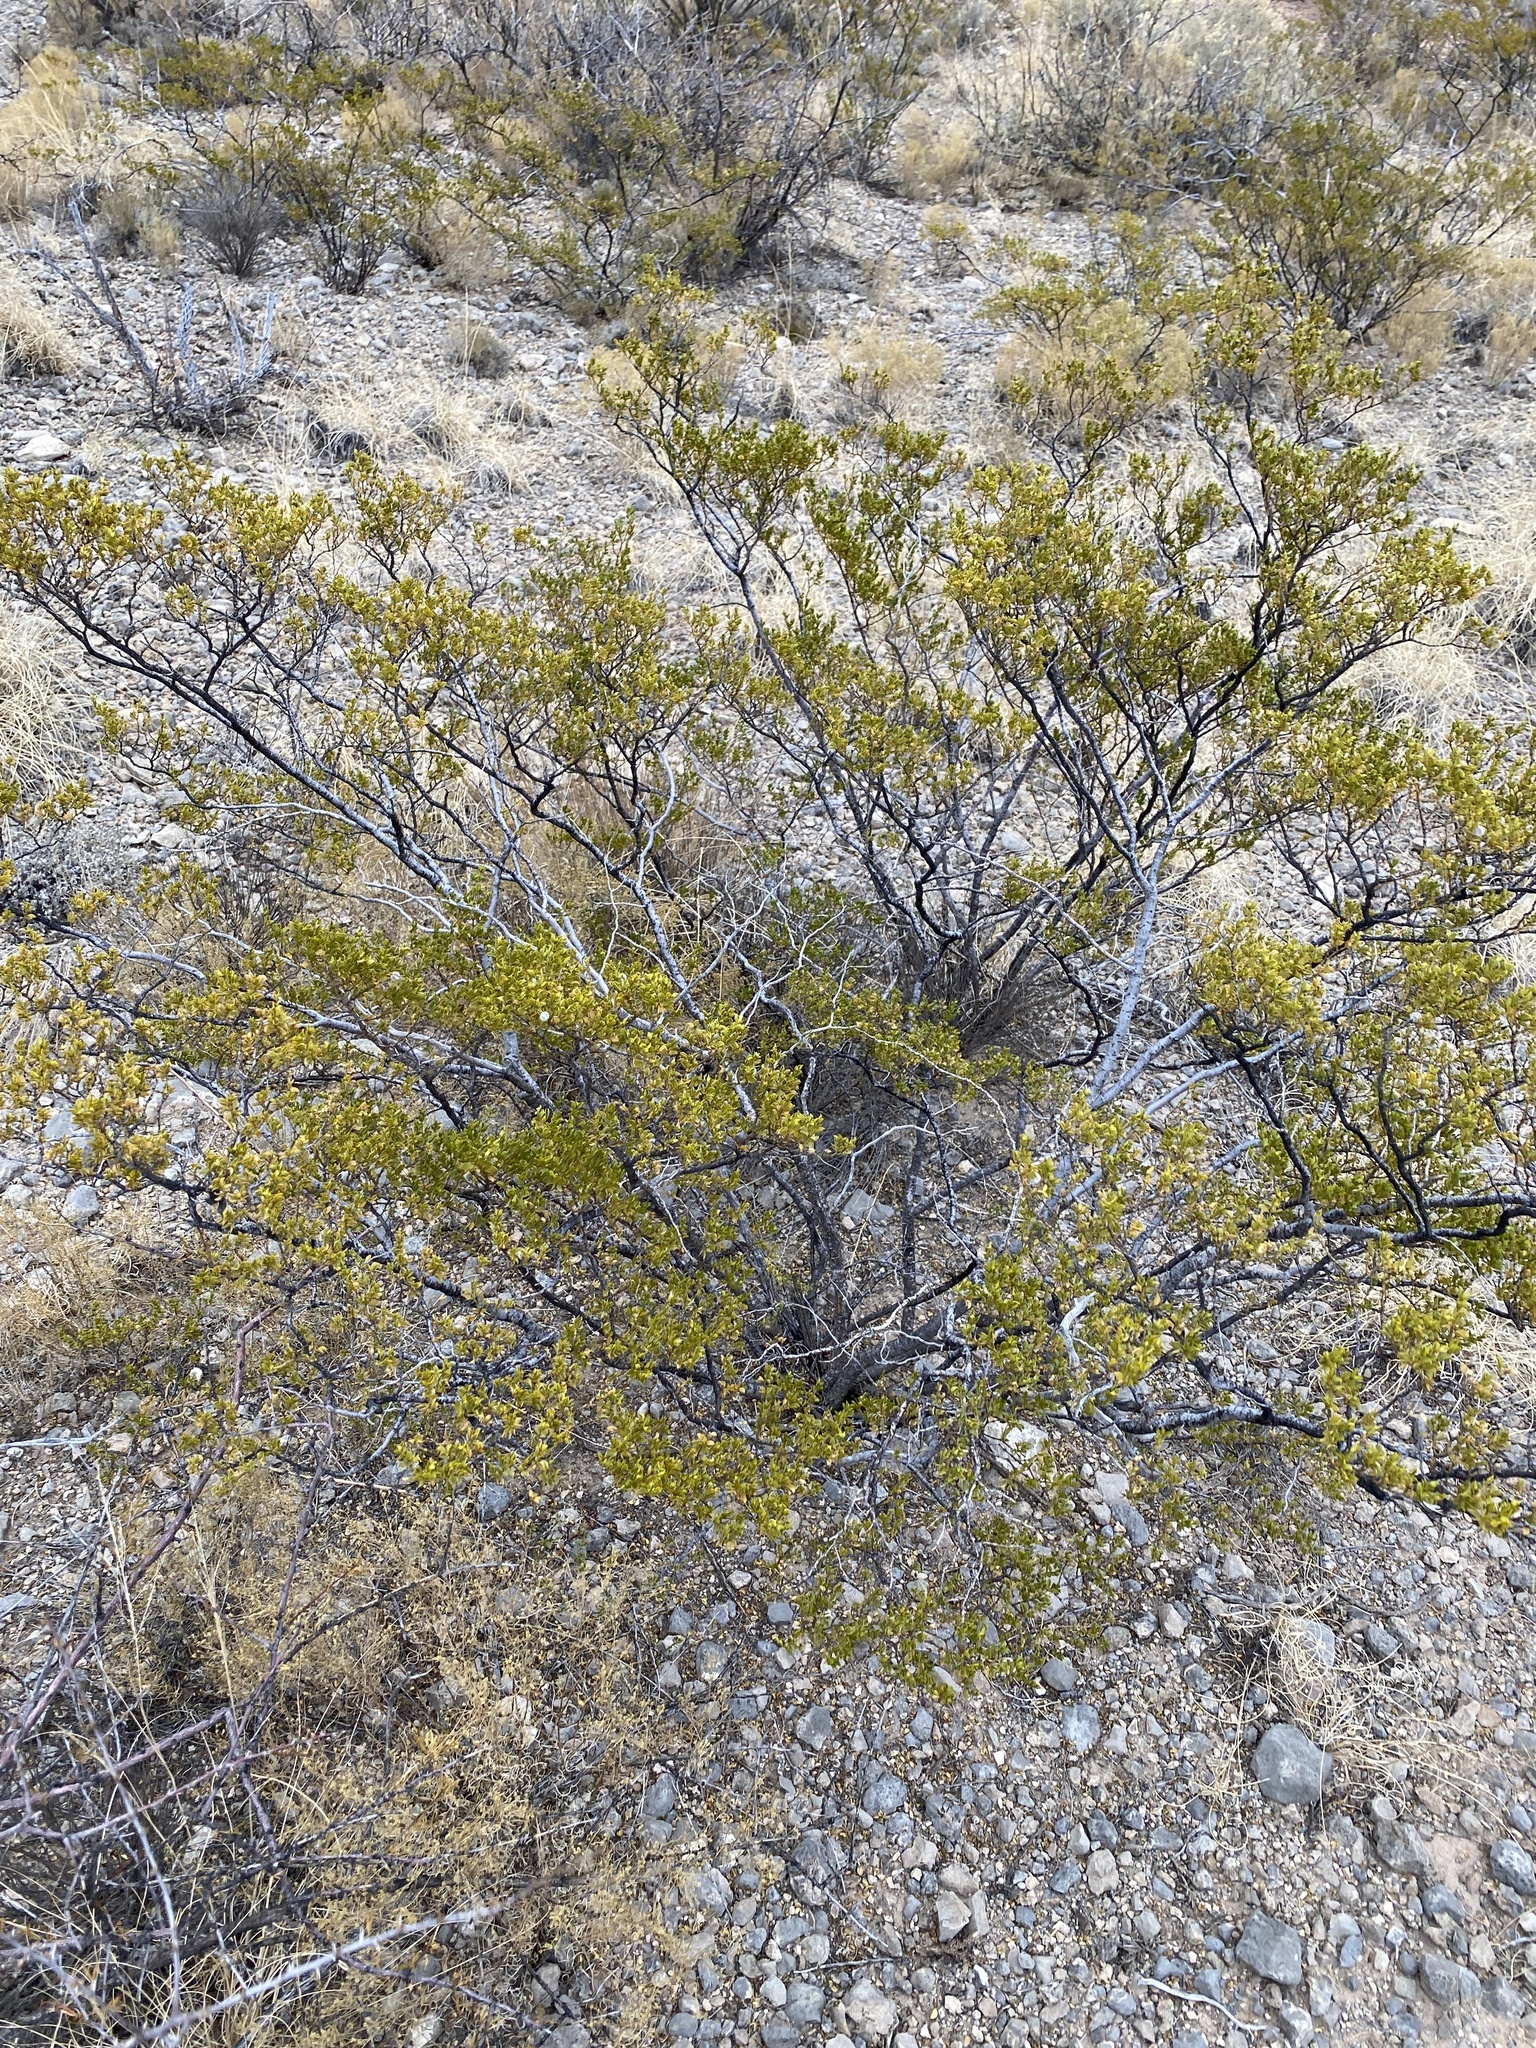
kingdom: Plantae
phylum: Tracheophyta
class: Magnoliopsida
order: Zygophyllales
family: Zygophyllaceae
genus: Larrea
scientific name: Larrea tridentata
